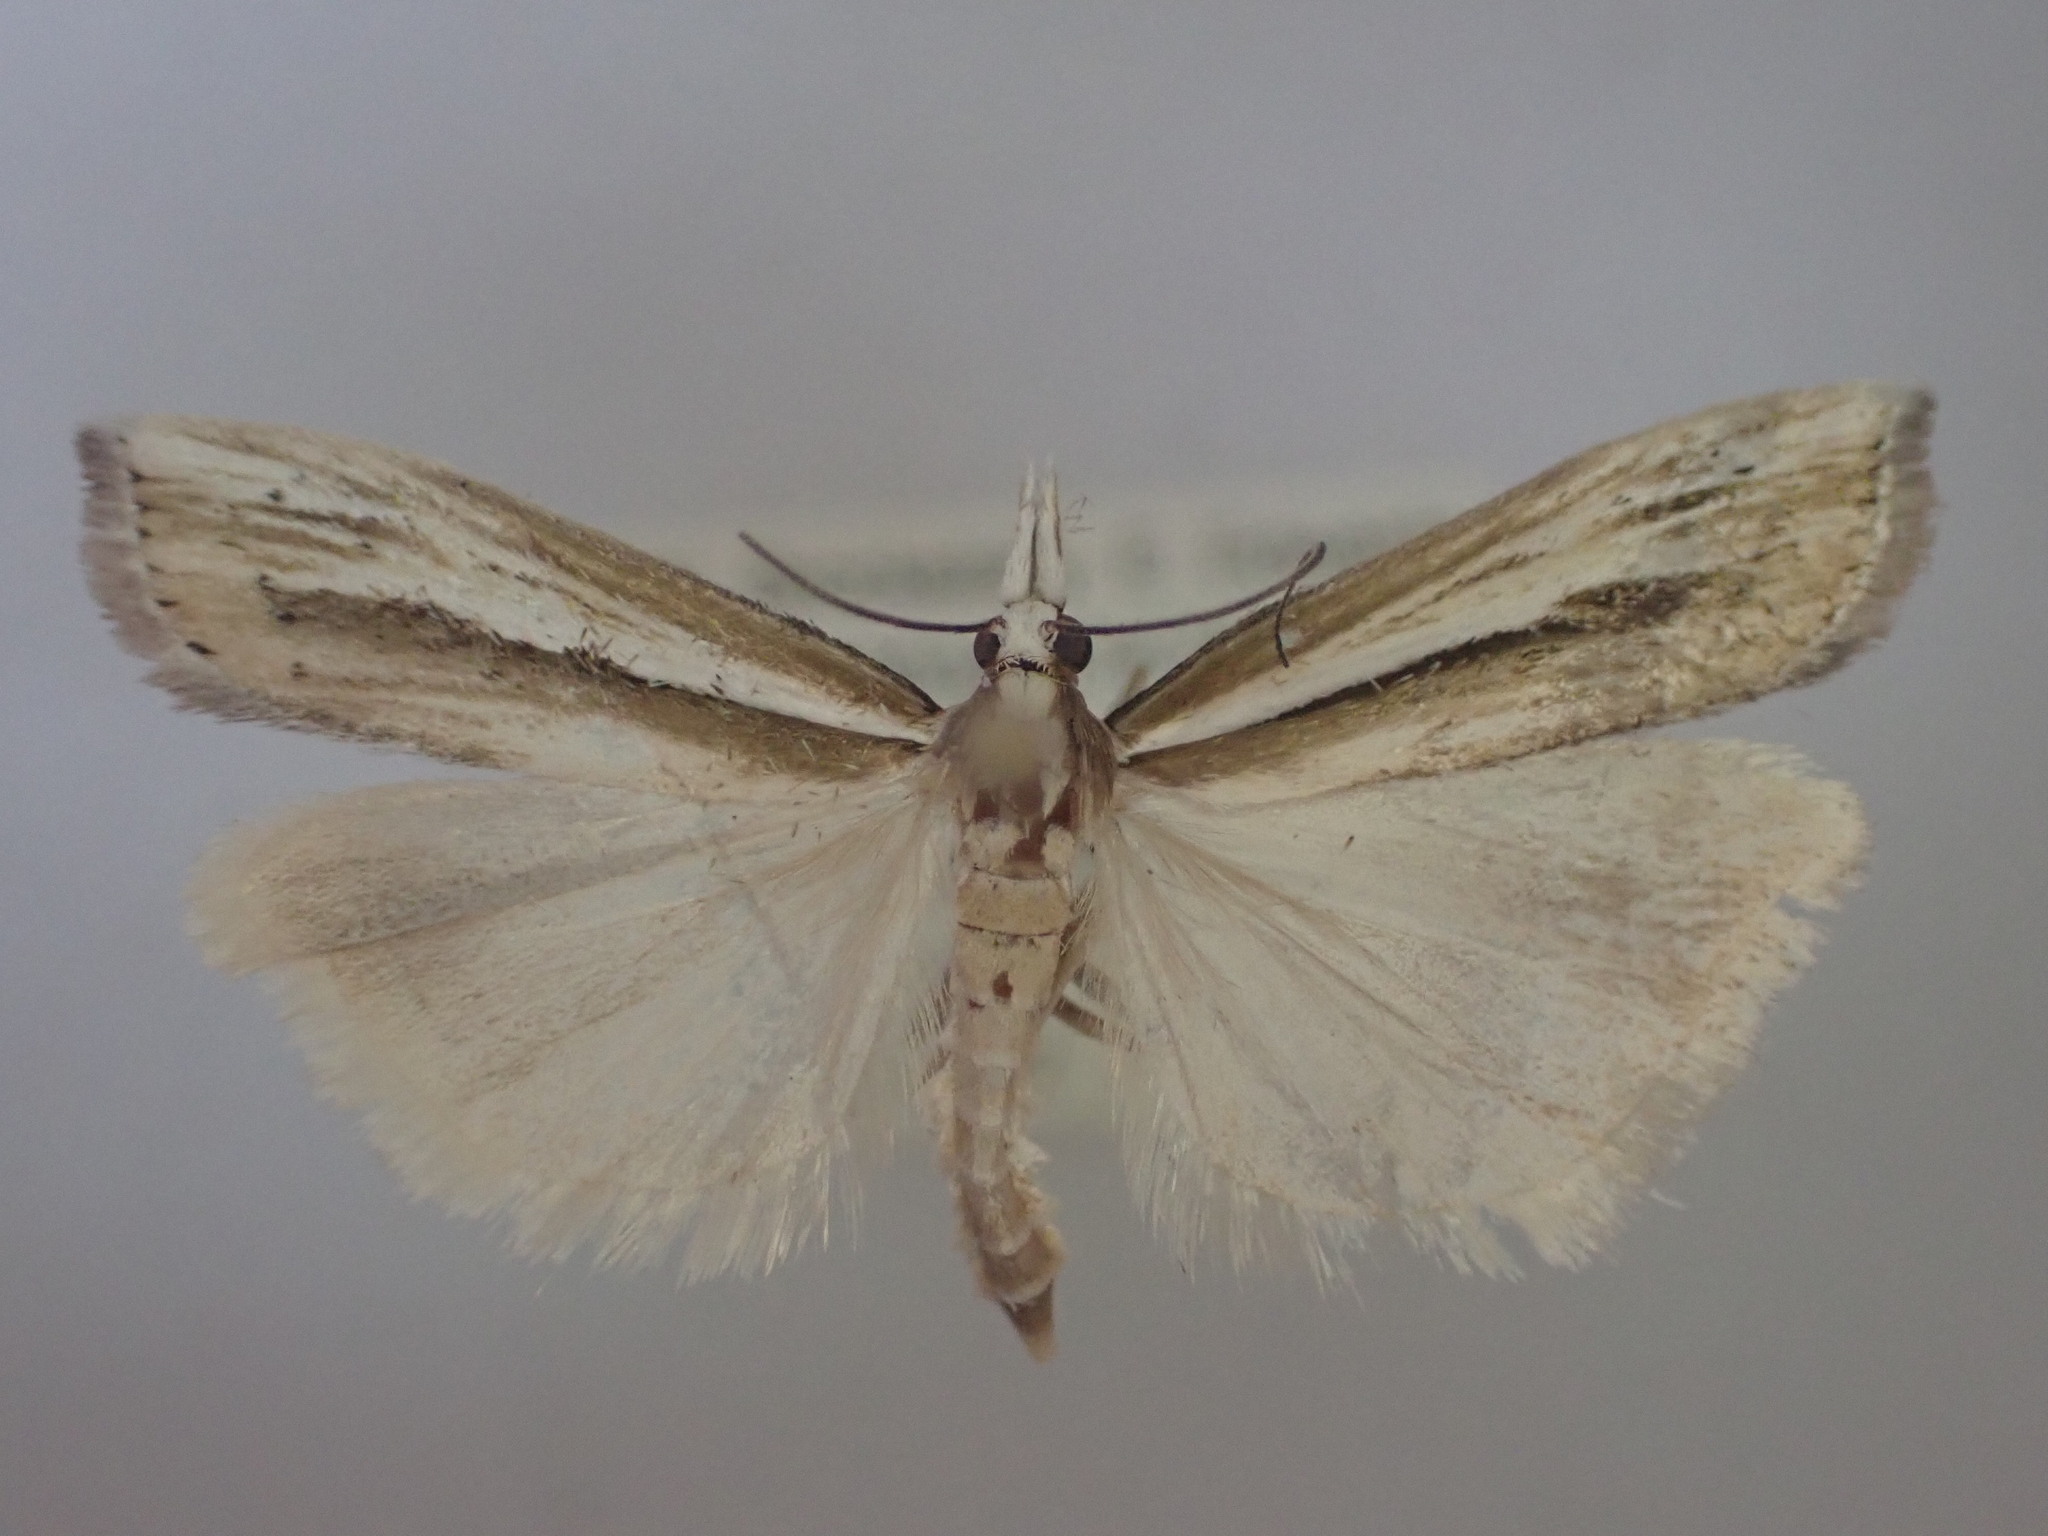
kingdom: Animalia
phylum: Arthropoda
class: Insecta
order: Lepidoptera
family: Crambidae
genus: Orocrambus
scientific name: Orocrambus ramosellus
